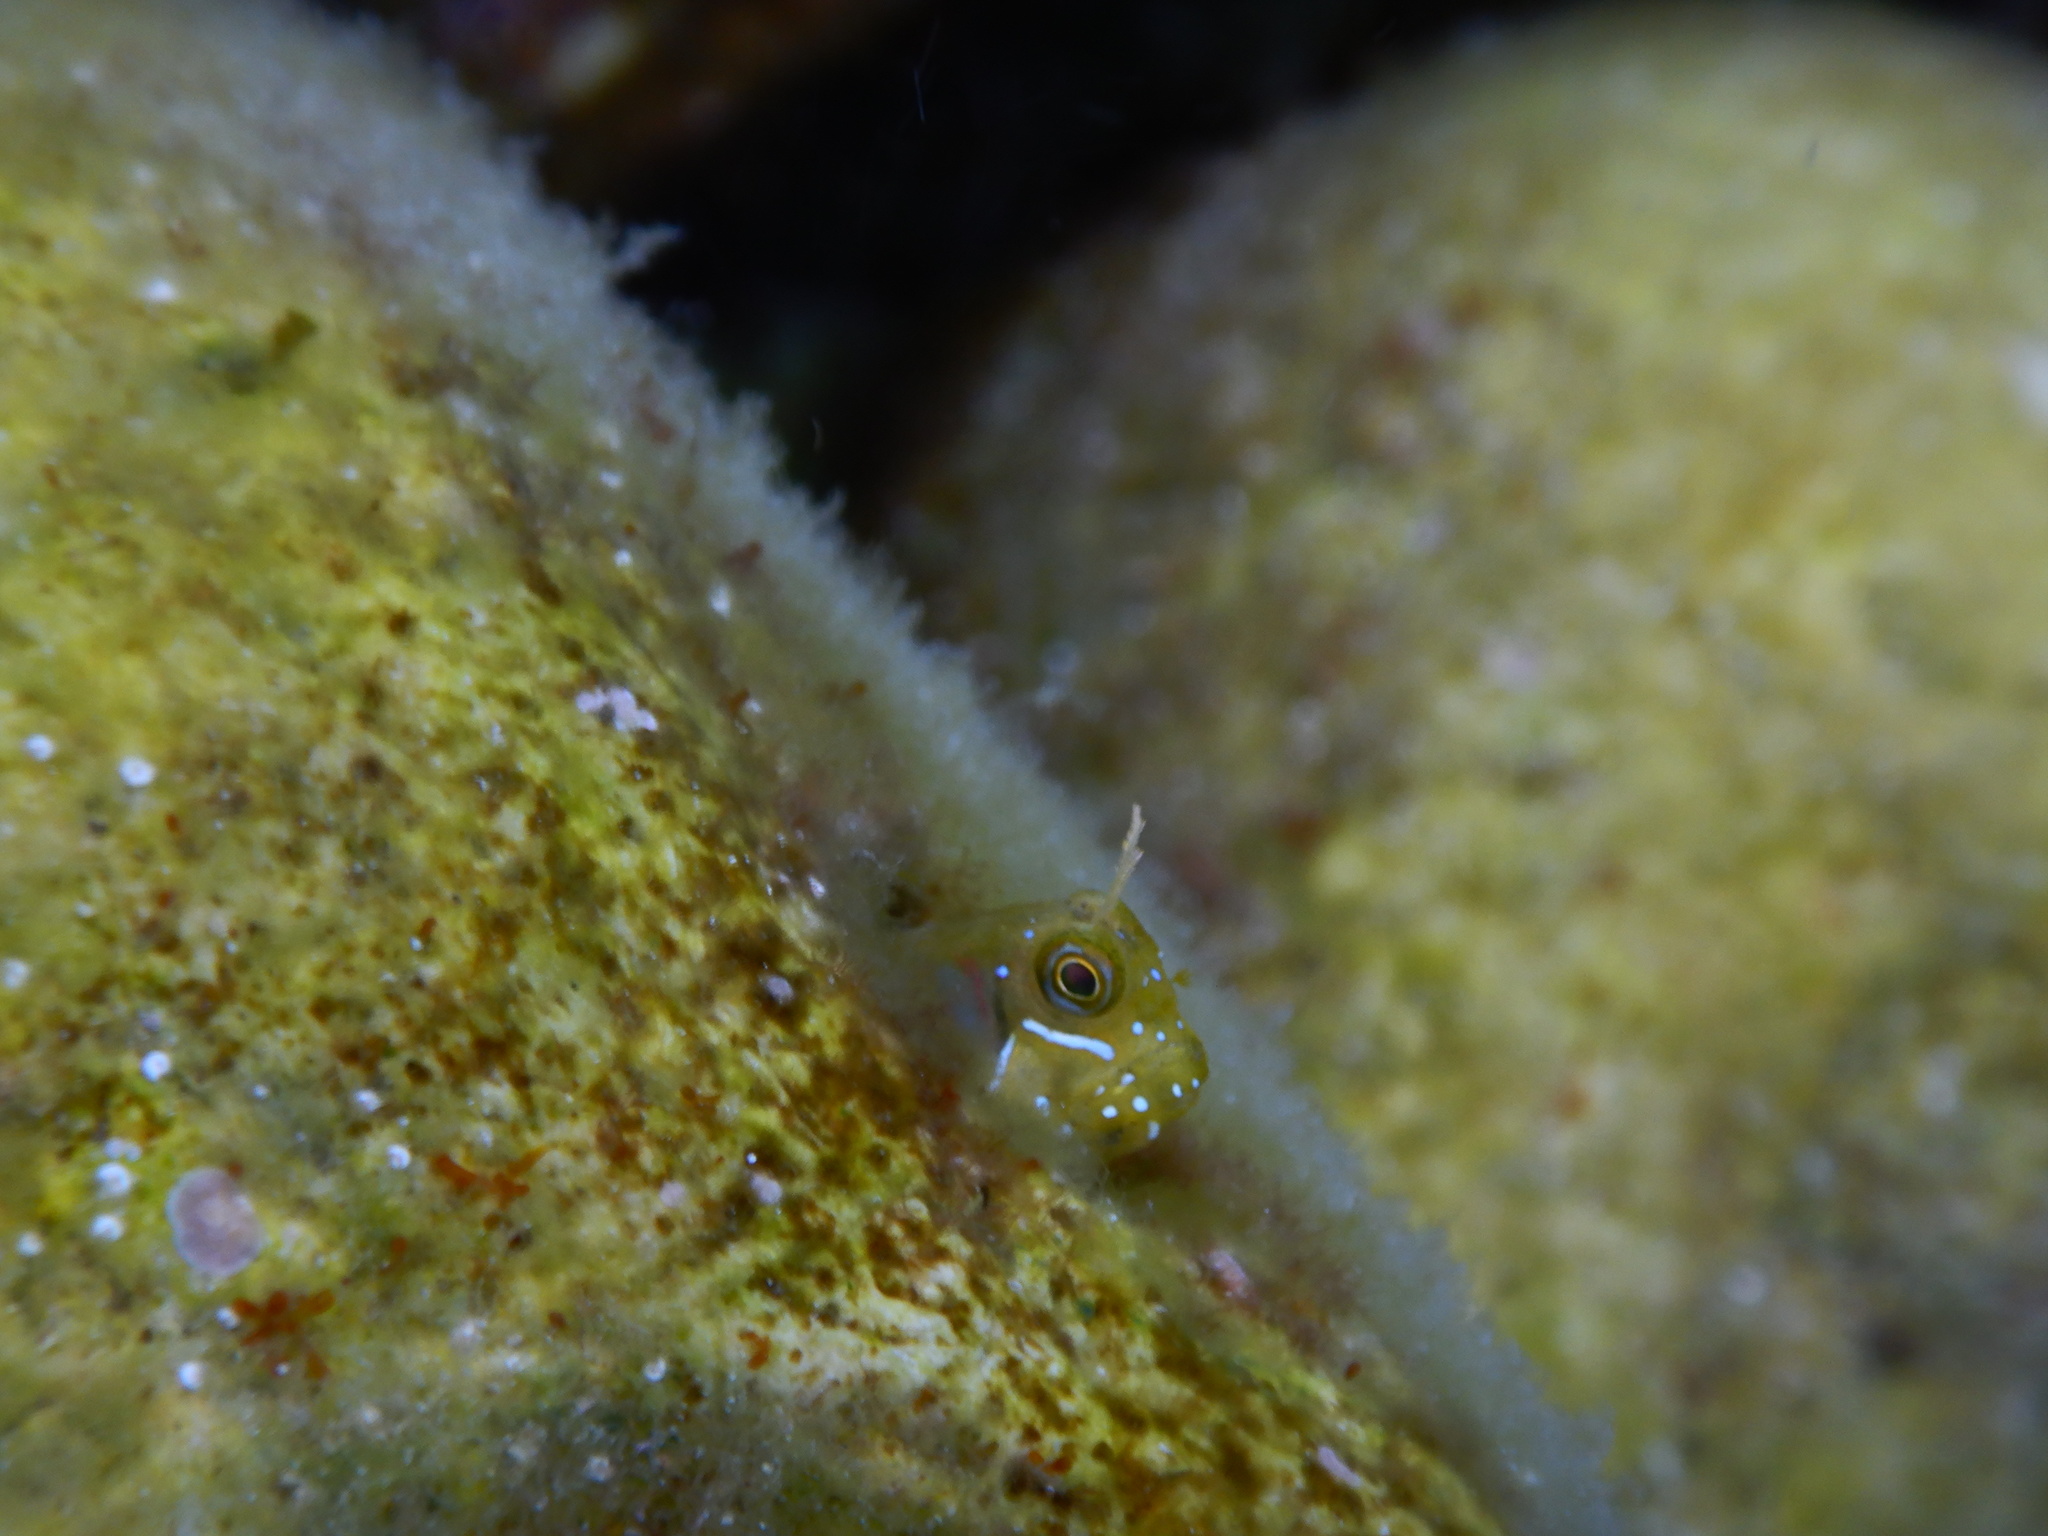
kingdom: Animalia
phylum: Chordata
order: Perciformes
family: Blenniidae
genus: Aidablennius
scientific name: Aidablennius sphynx
